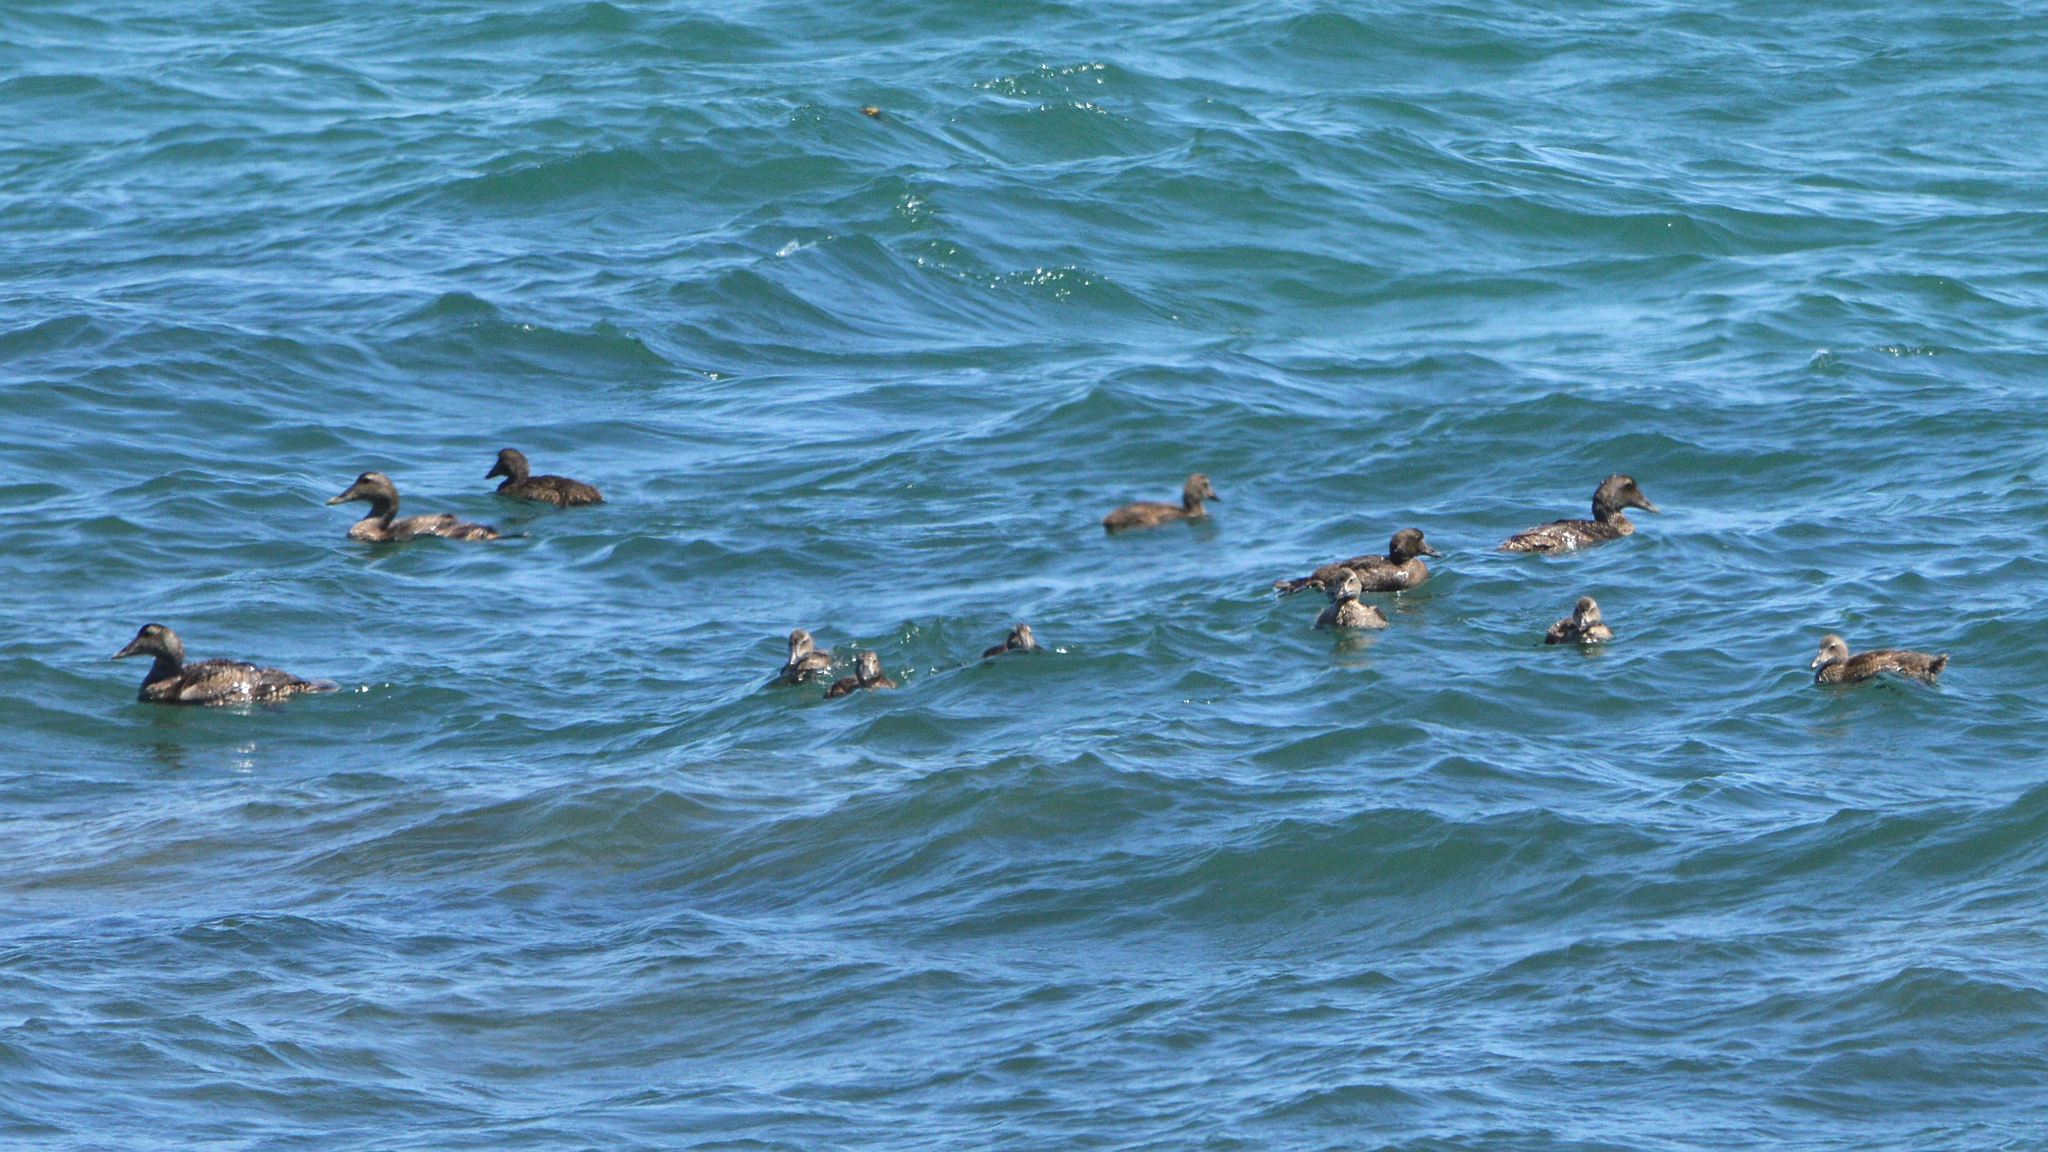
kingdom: Animalia
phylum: Chordata
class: Aves
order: Anseriformes
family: Anatidae
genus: Somateria
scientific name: Somateria mollissima
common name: Common eider
